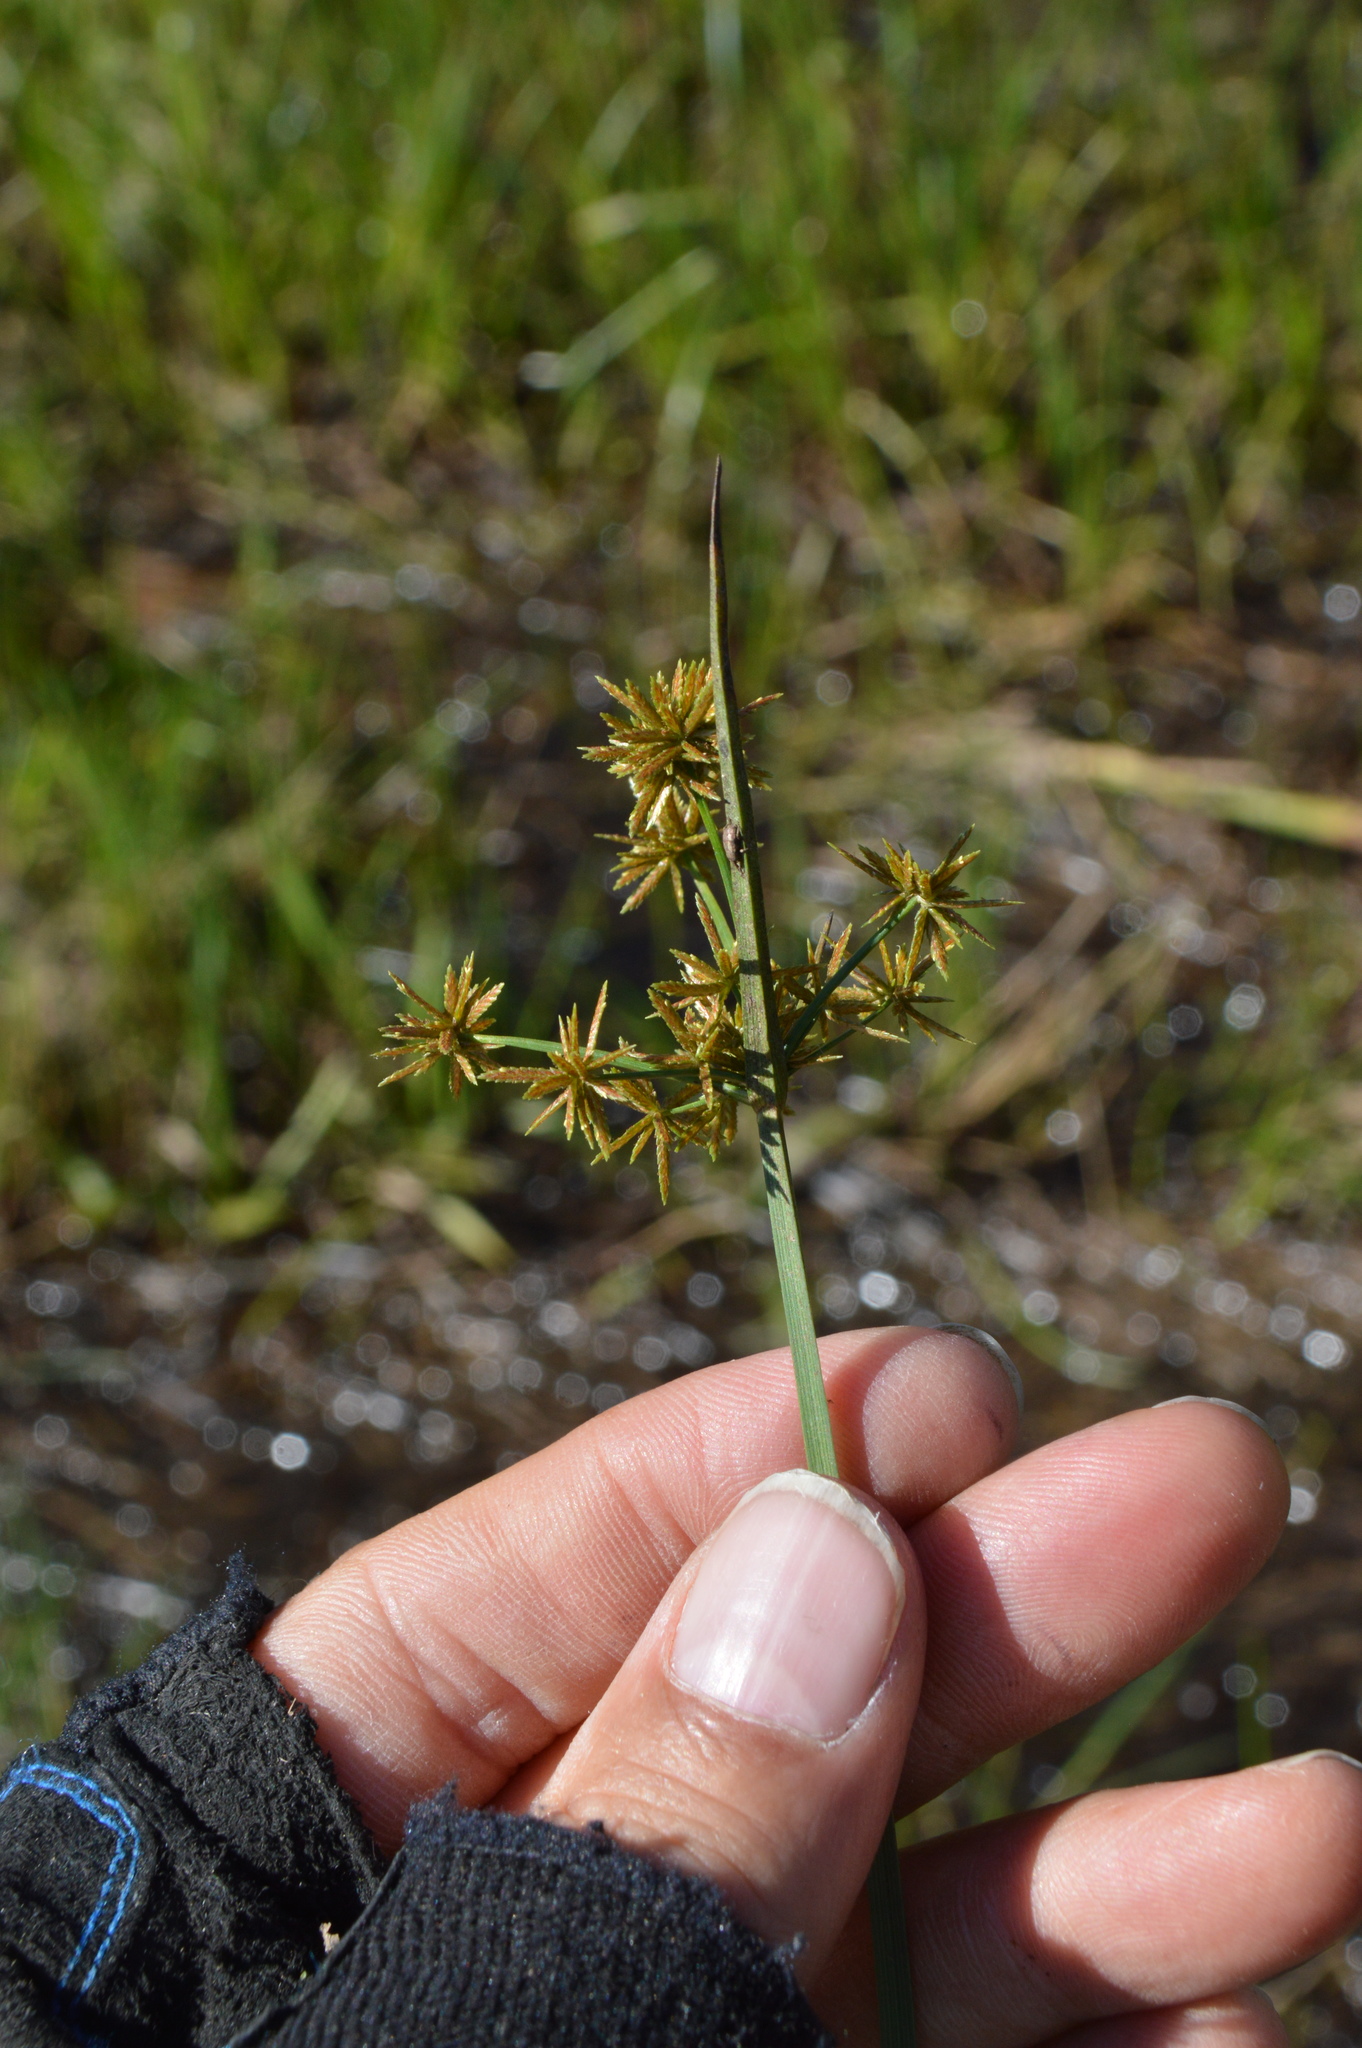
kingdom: Plantae
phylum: Tracheophyta
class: Liliopsida
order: Poales
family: Cyperaceae
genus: Cyperus
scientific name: Cyperus haspan
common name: Haspan flatsedge
